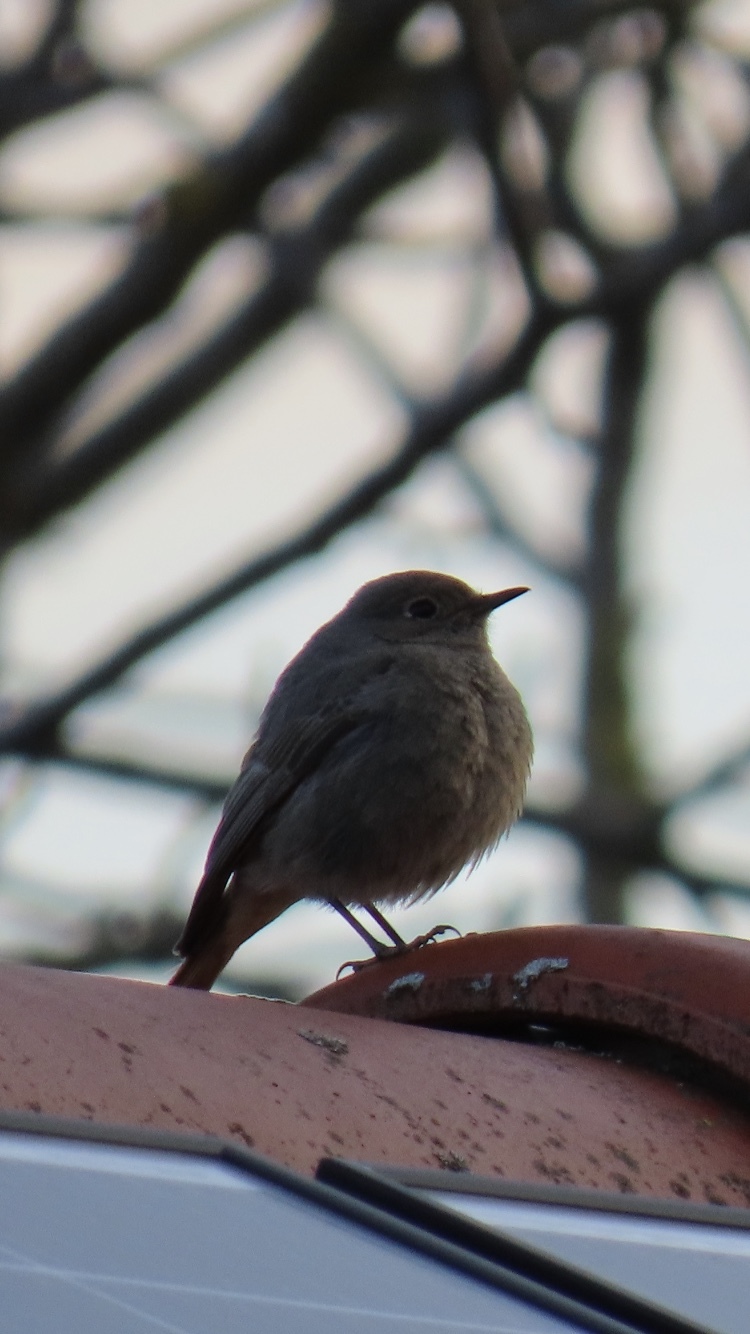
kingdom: Animalia
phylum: Chordata
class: Aves
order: Passeriformes
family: Muscicapidae
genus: Phoenicurus
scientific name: Phoenicurus ochruros
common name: Black redstart
